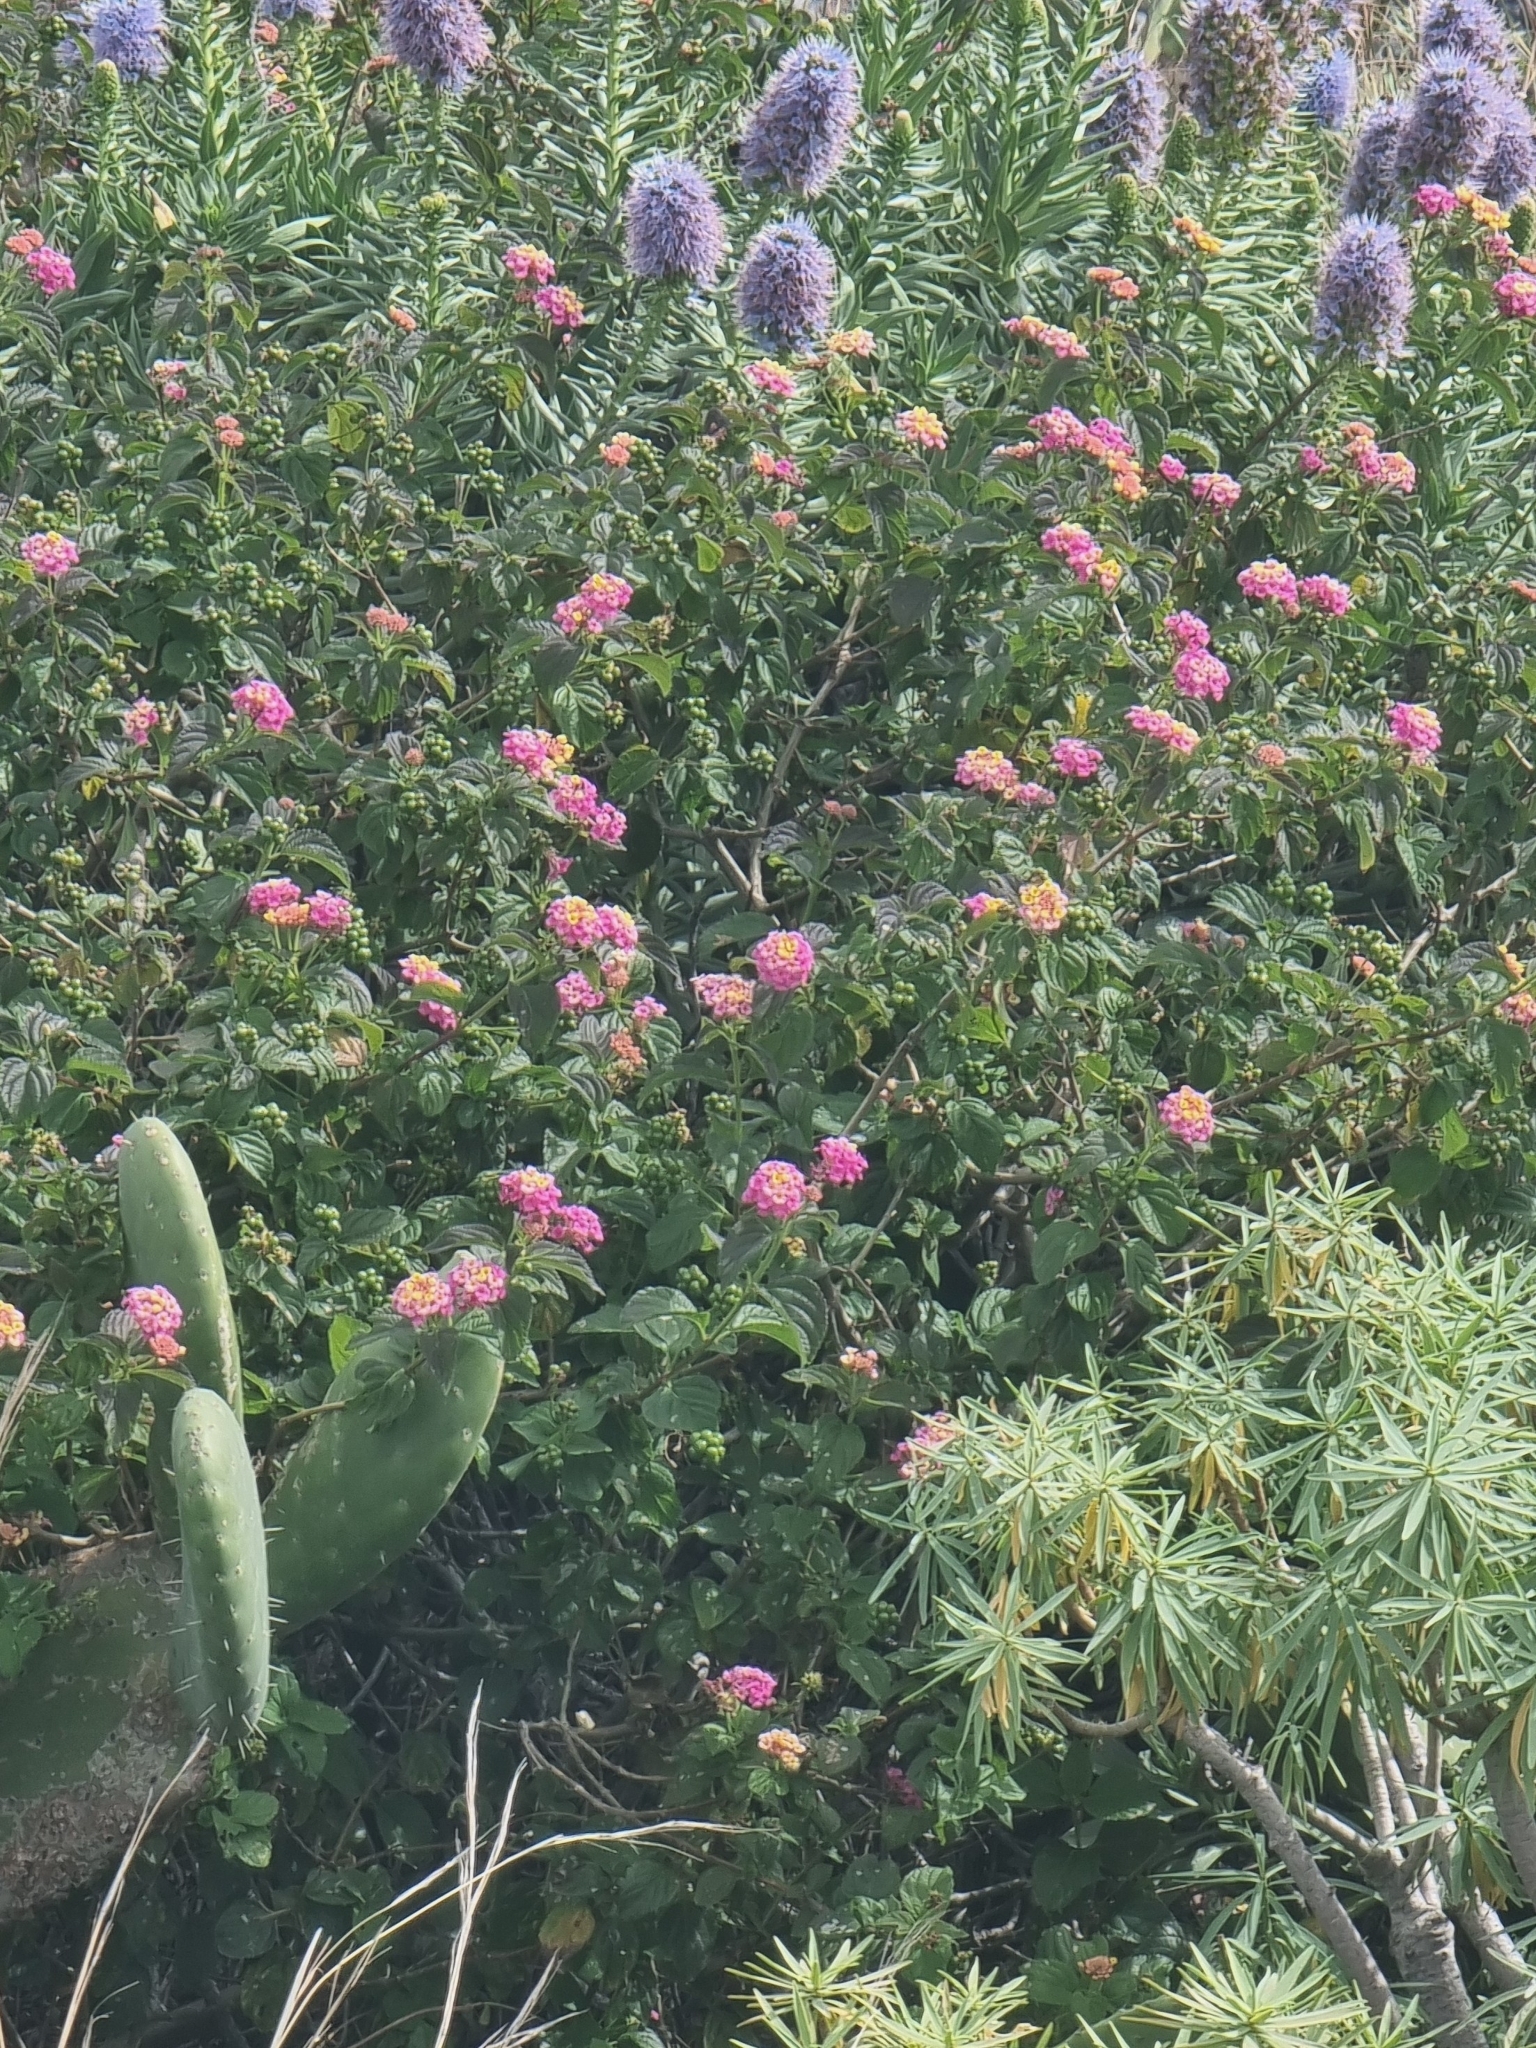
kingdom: Plantae
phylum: Tracheophyta
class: Magnoliopsida
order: Lamiales
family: Verbenaceae
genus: Lantana
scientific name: Lantana camara
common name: Lantana
